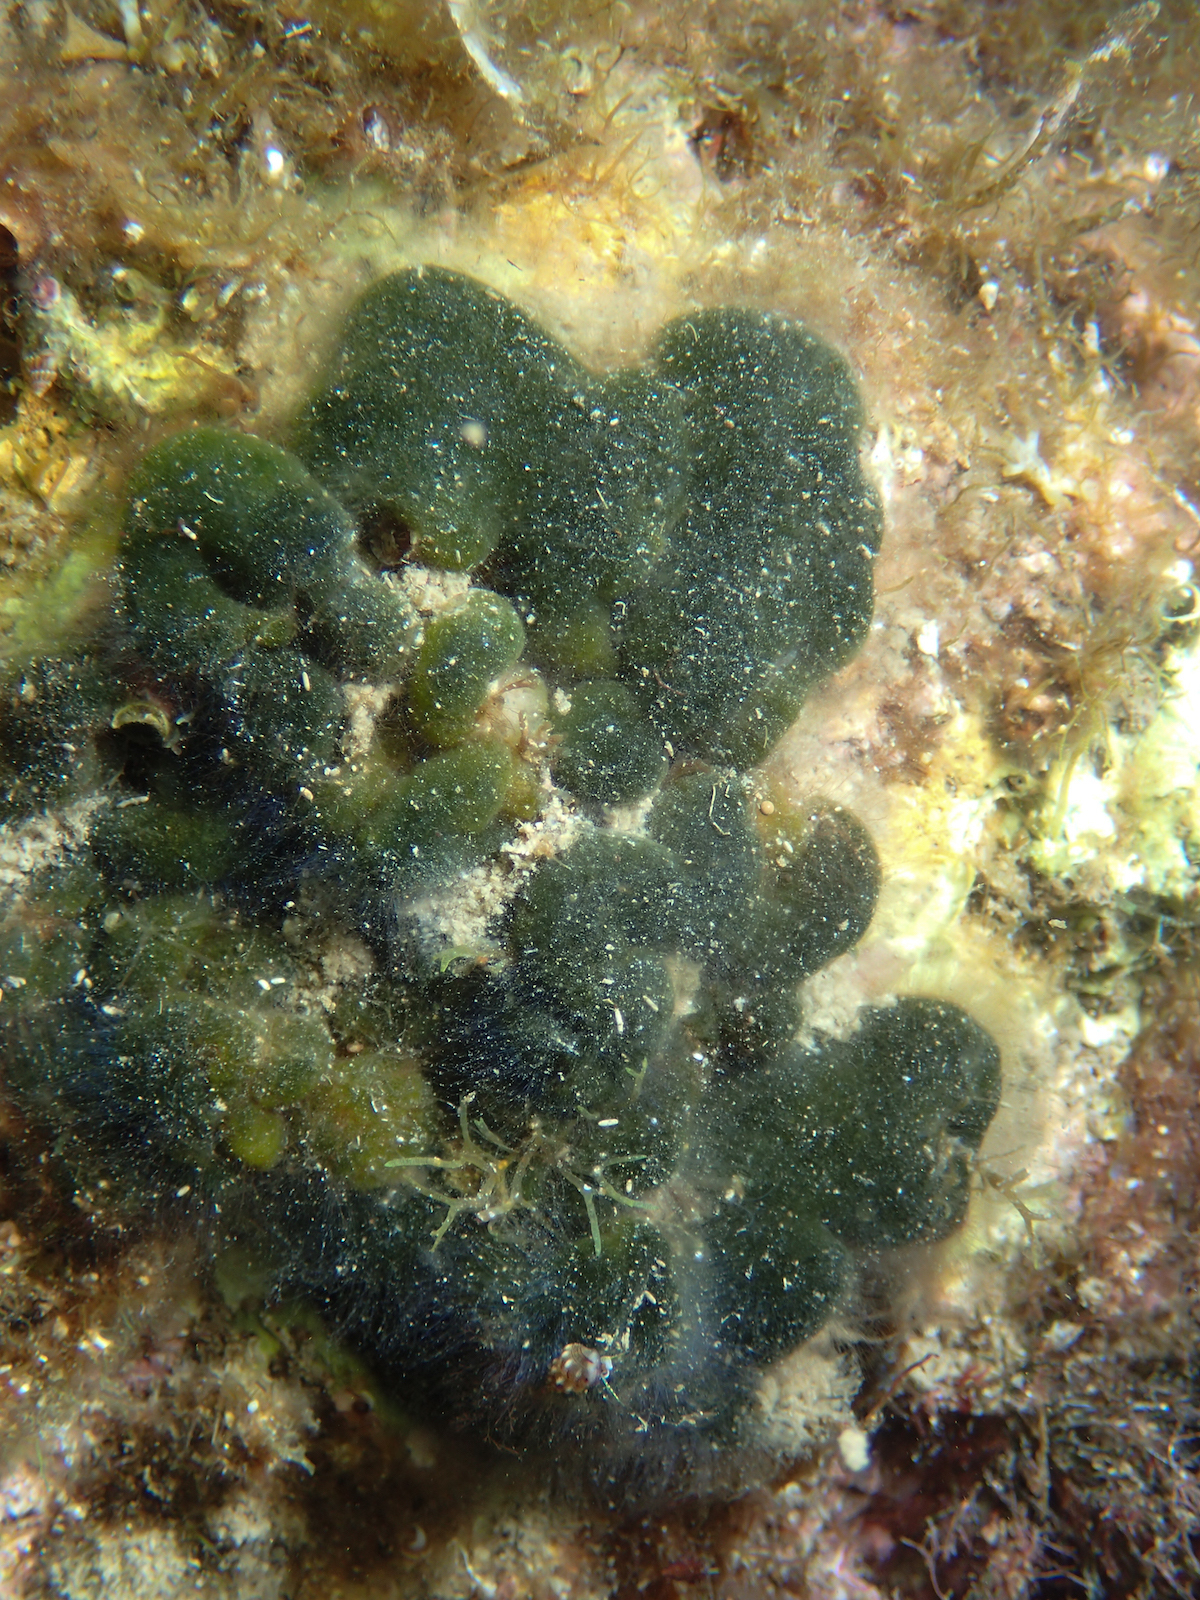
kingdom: Plantae
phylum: Chlorophyta
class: Ulvophyceae
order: Bryopsidales
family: Codiaceae
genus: Codium
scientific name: Codium coralloides
